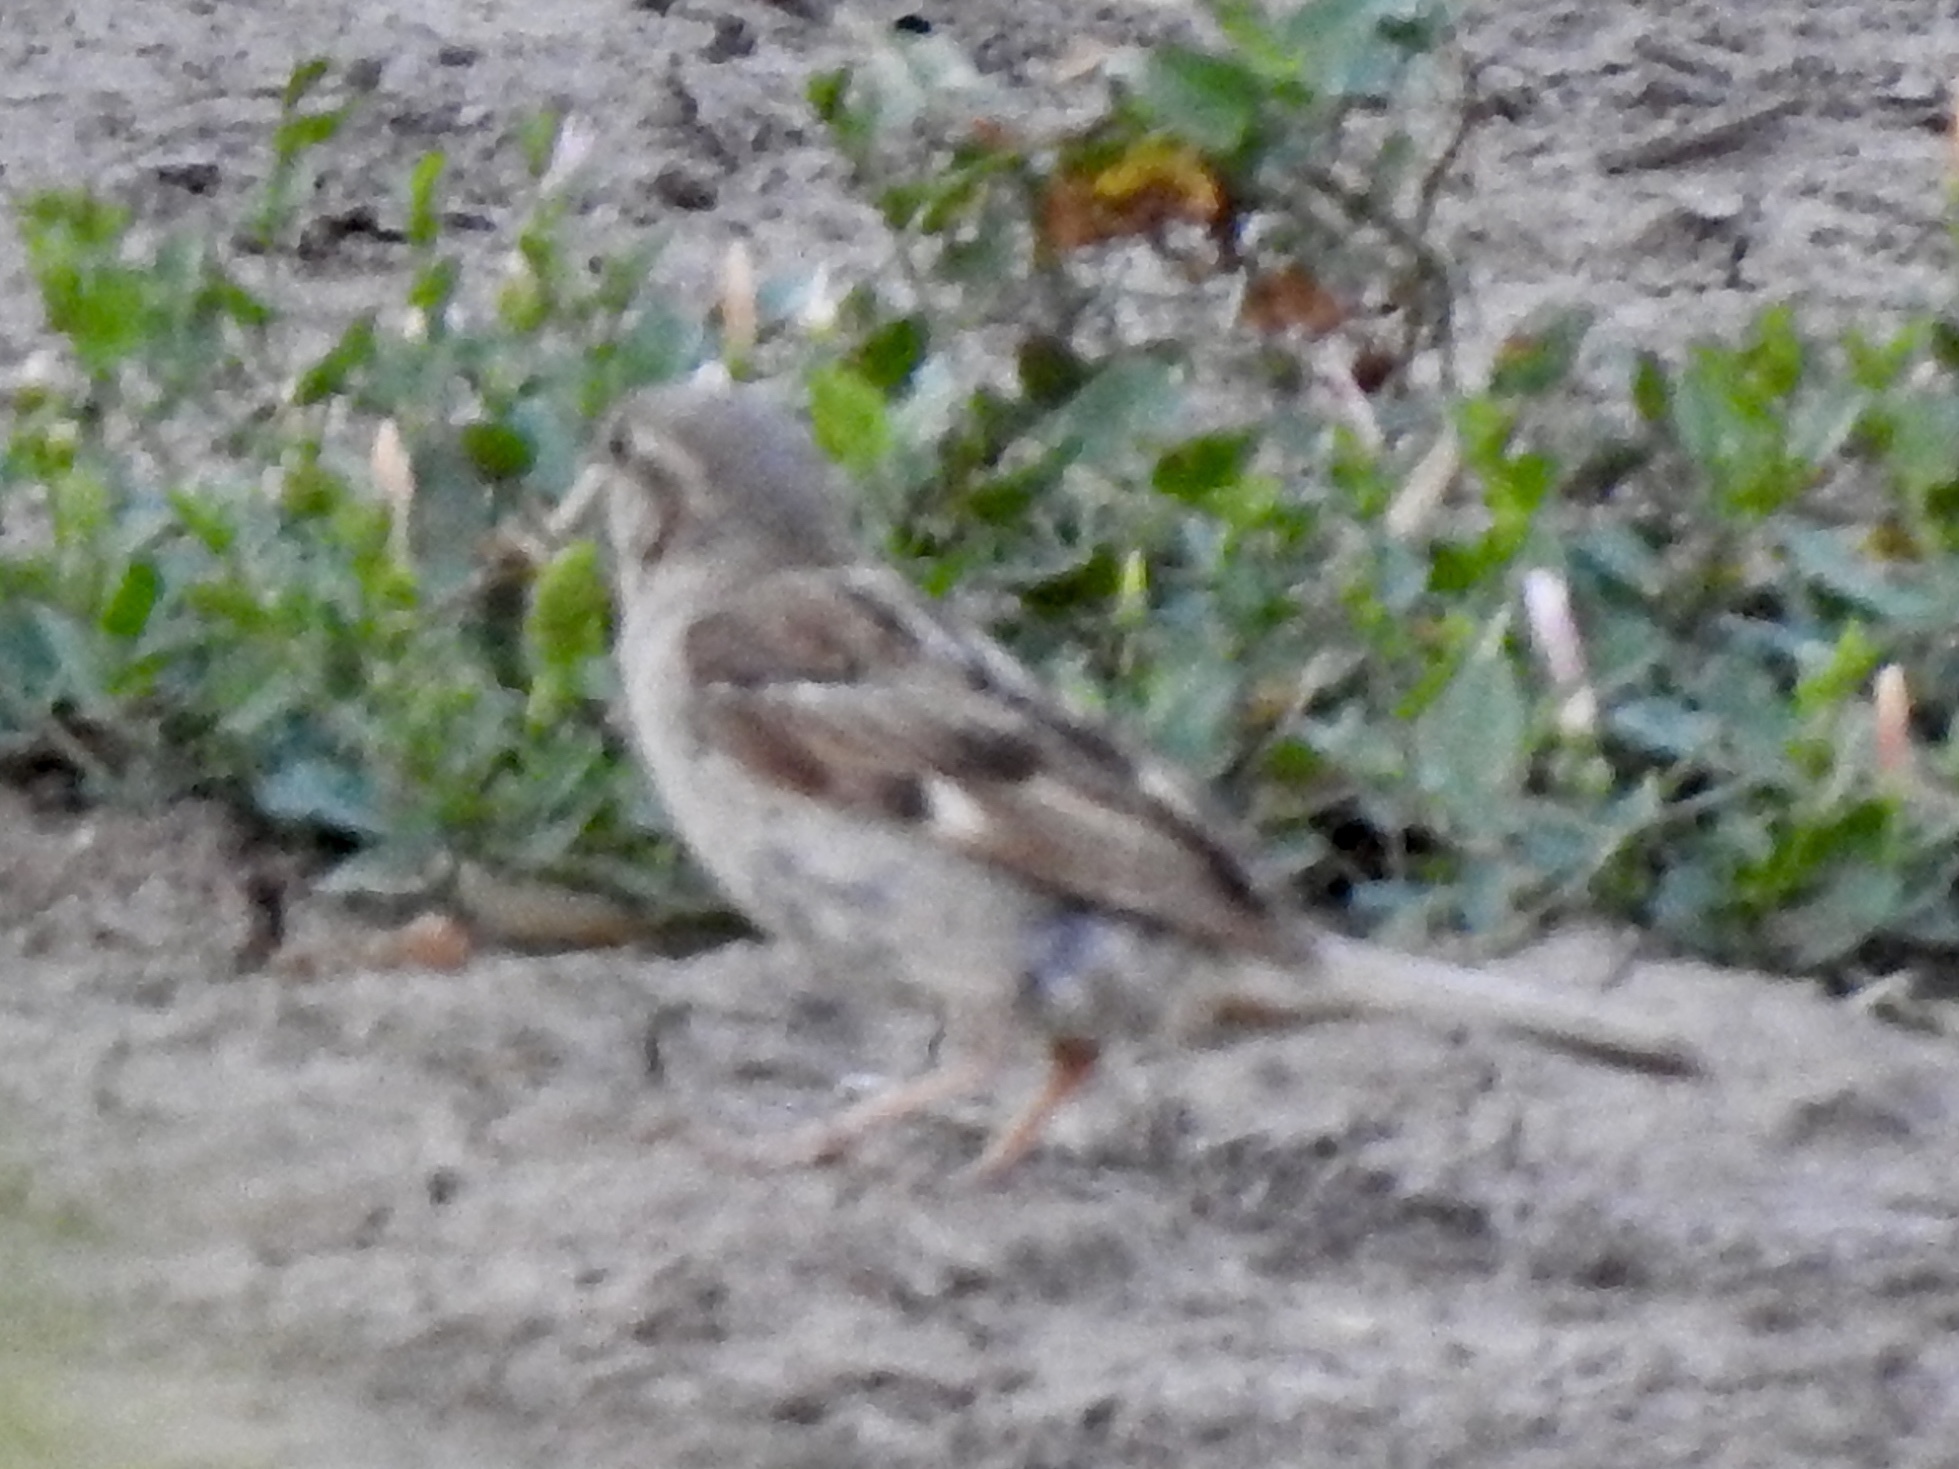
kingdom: Animalia
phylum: Chordata
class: Aves
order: Passeriformes
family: Passeridae
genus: Passer
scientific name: Passer domesticus
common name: House sparrow
